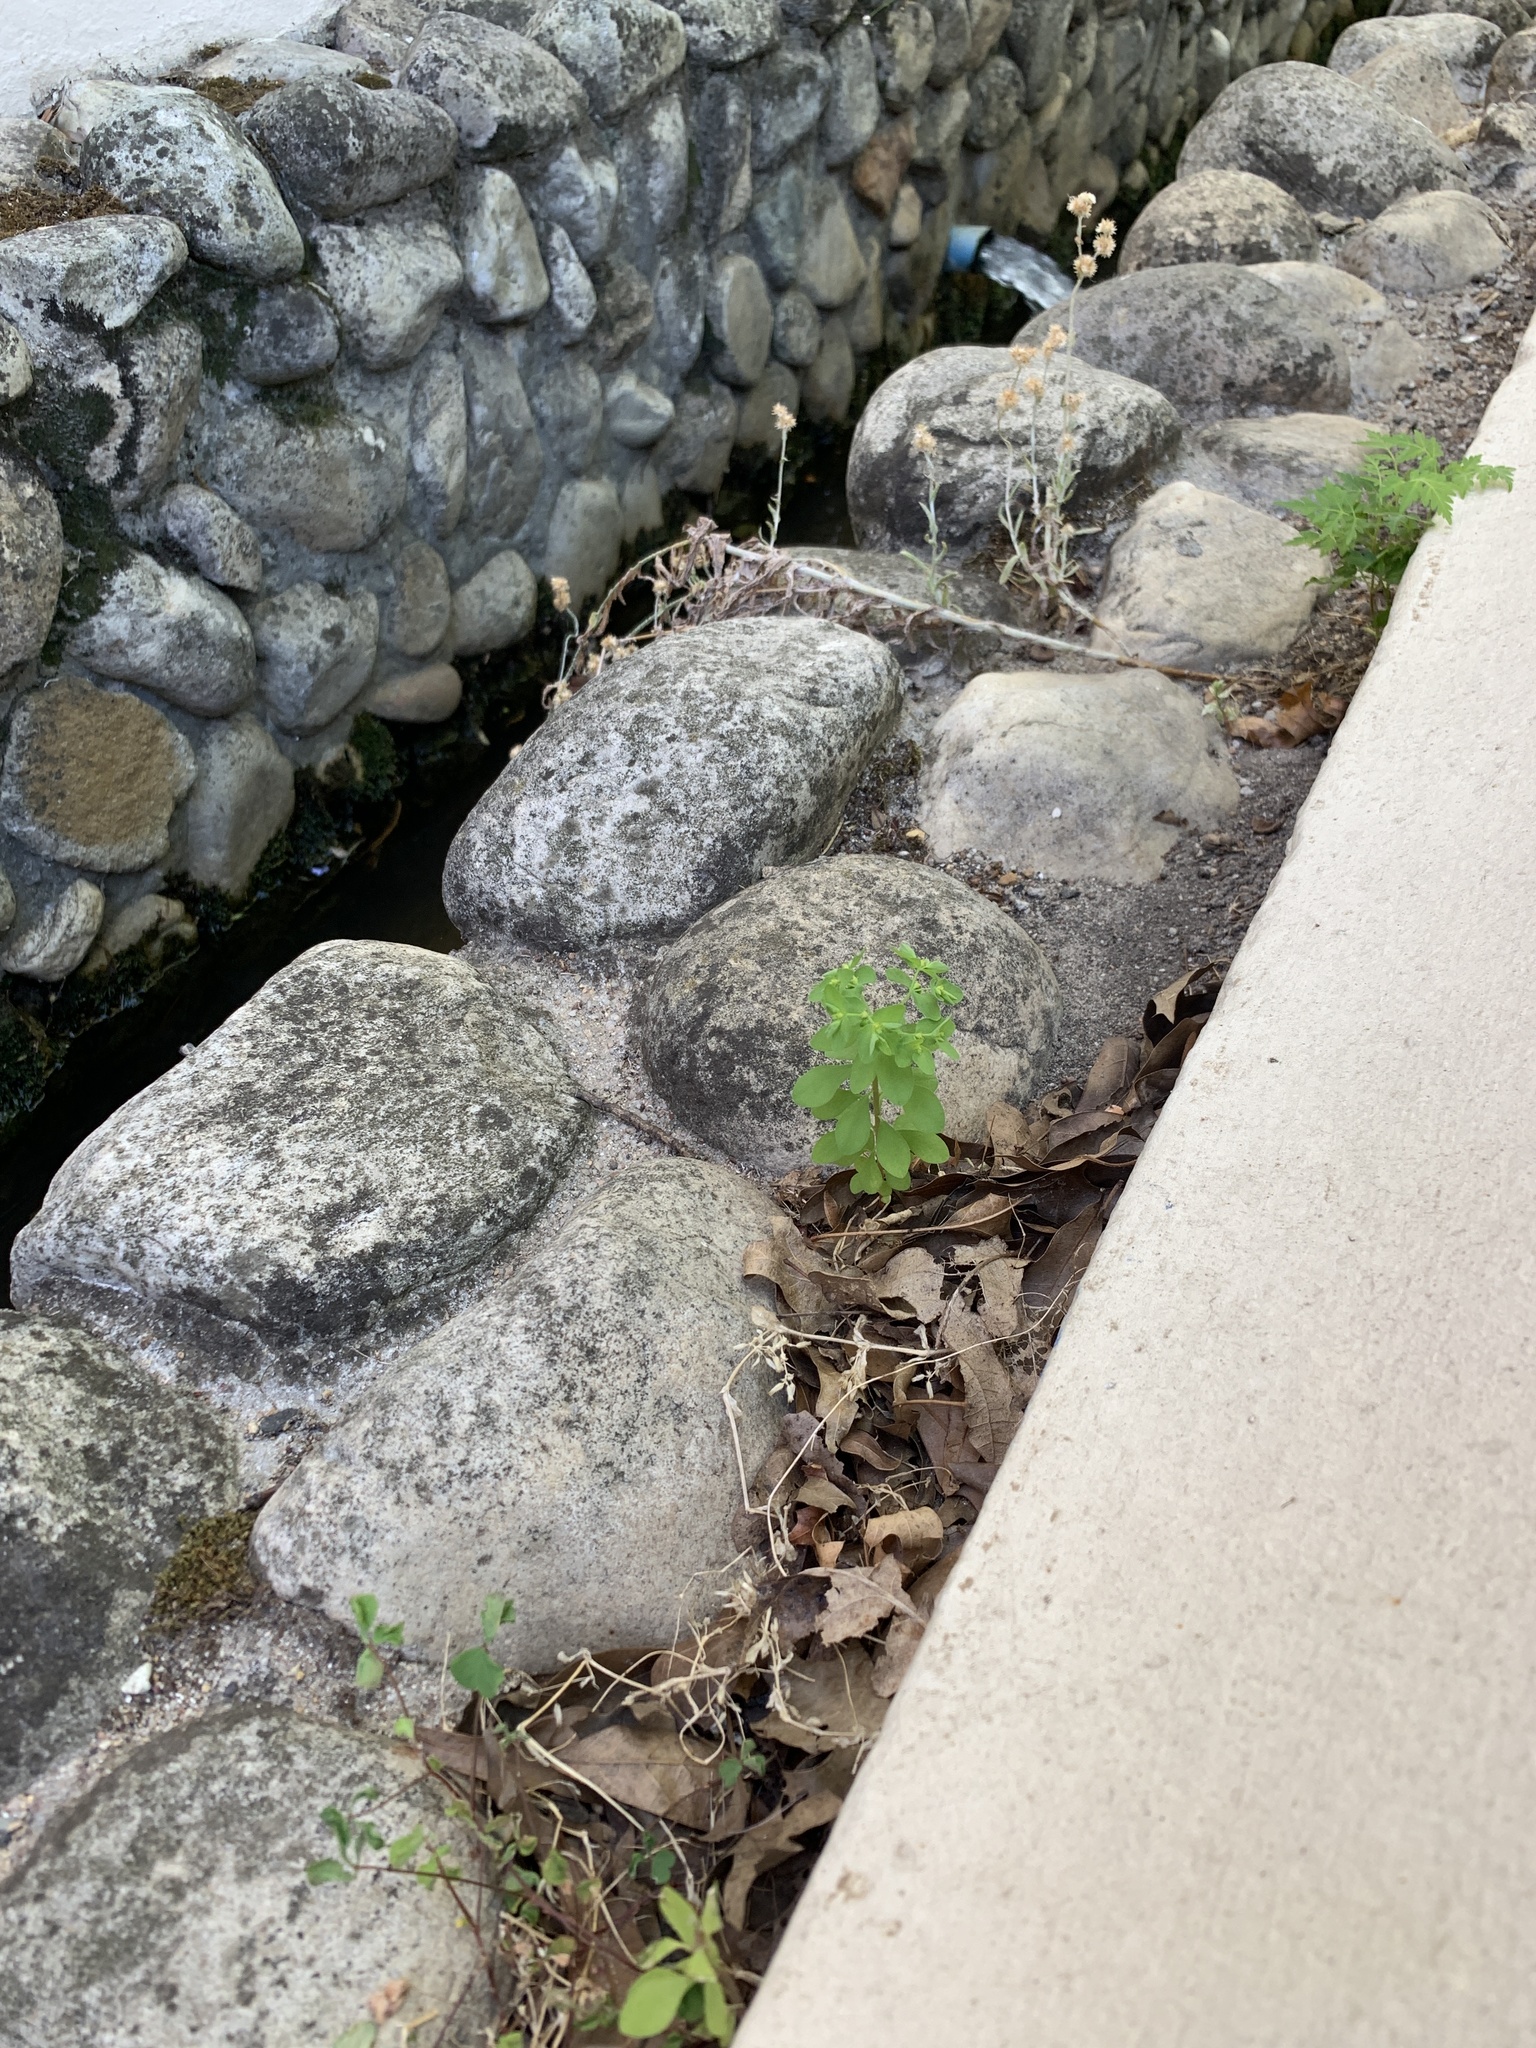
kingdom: Plantae
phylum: Tracheophyta
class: Magnoliopsida
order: Malpighiales
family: Euphorbiaceae
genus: Euphorbia
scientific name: Euphorbia peplus
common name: Petty spurge
